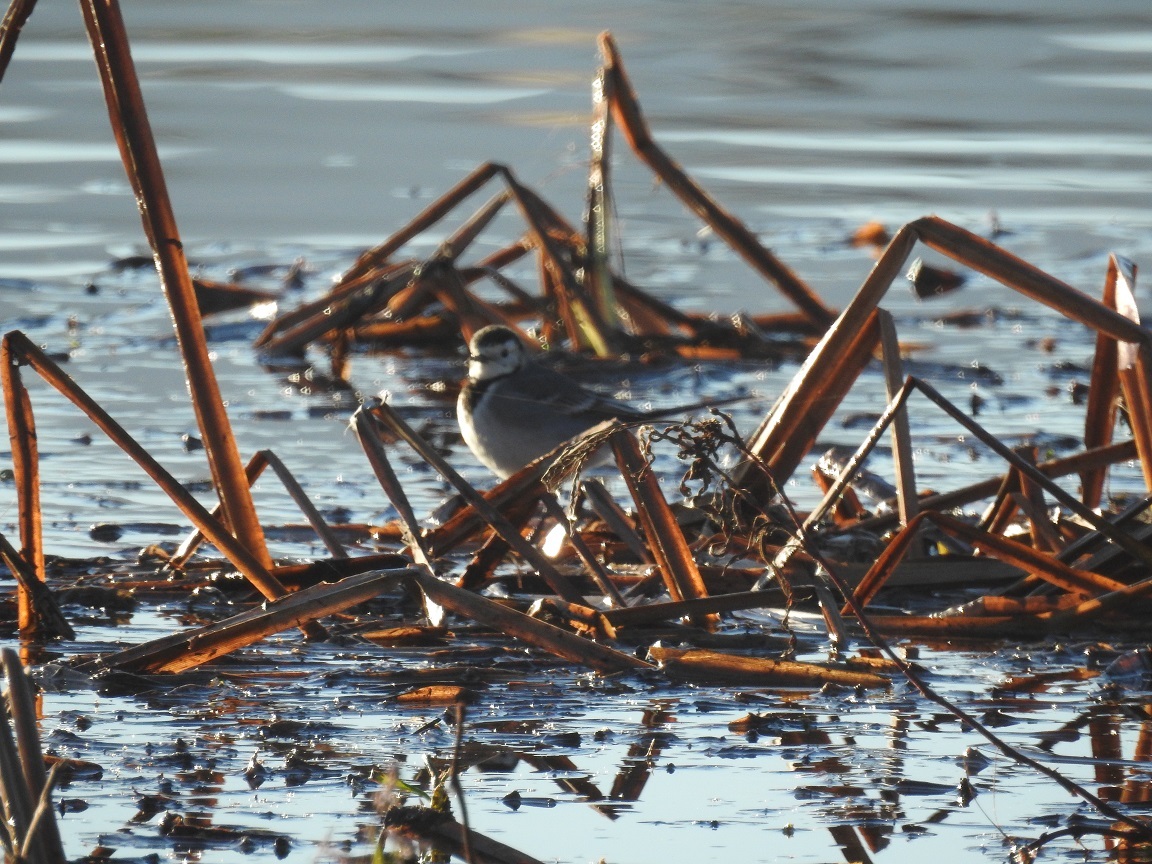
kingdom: Animalia
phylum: Chordata
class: Aves
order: Passeriformes
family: Motacillidae
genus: Motacilla
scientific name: Motacilla alba
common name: White wagtail
